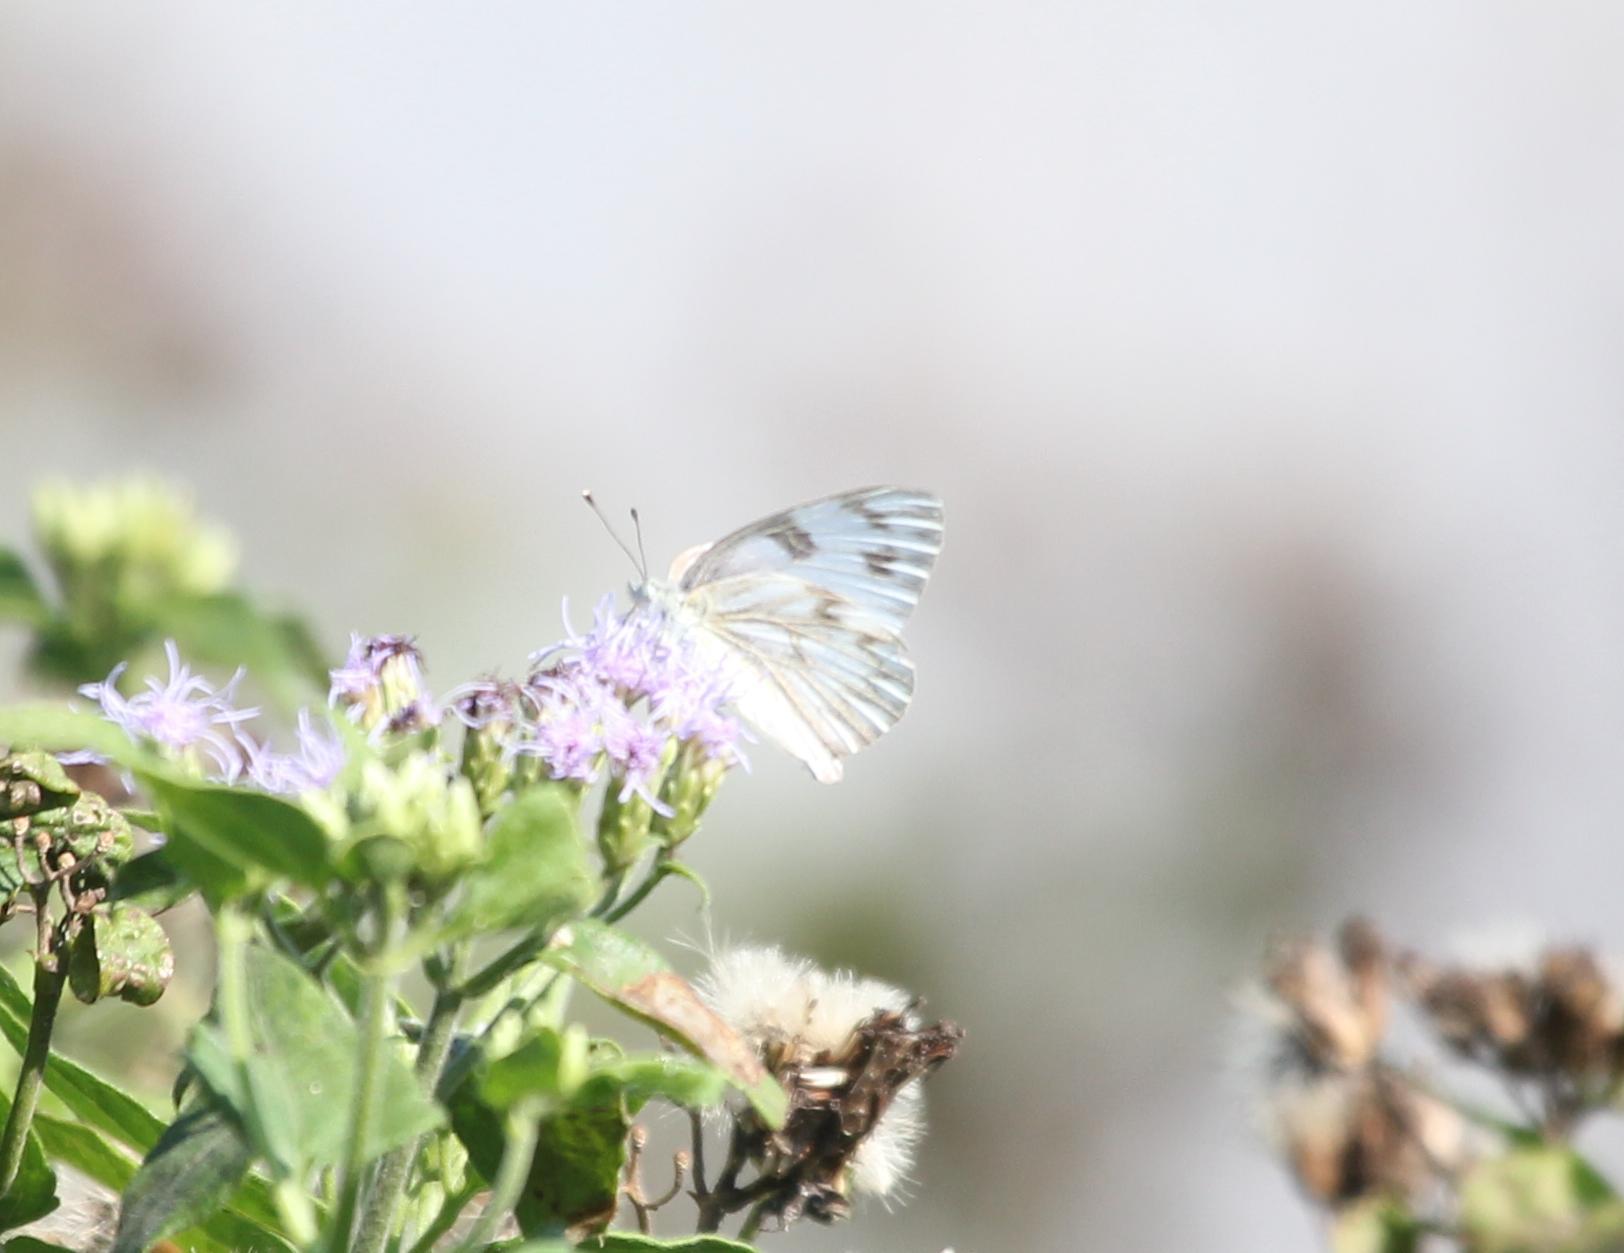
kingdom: Animalia
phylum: Arthropoda
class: Insecta
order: Lepidoptera
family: Pieridae
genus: Pontia
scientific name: Pontia protodice
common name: Checkered white
